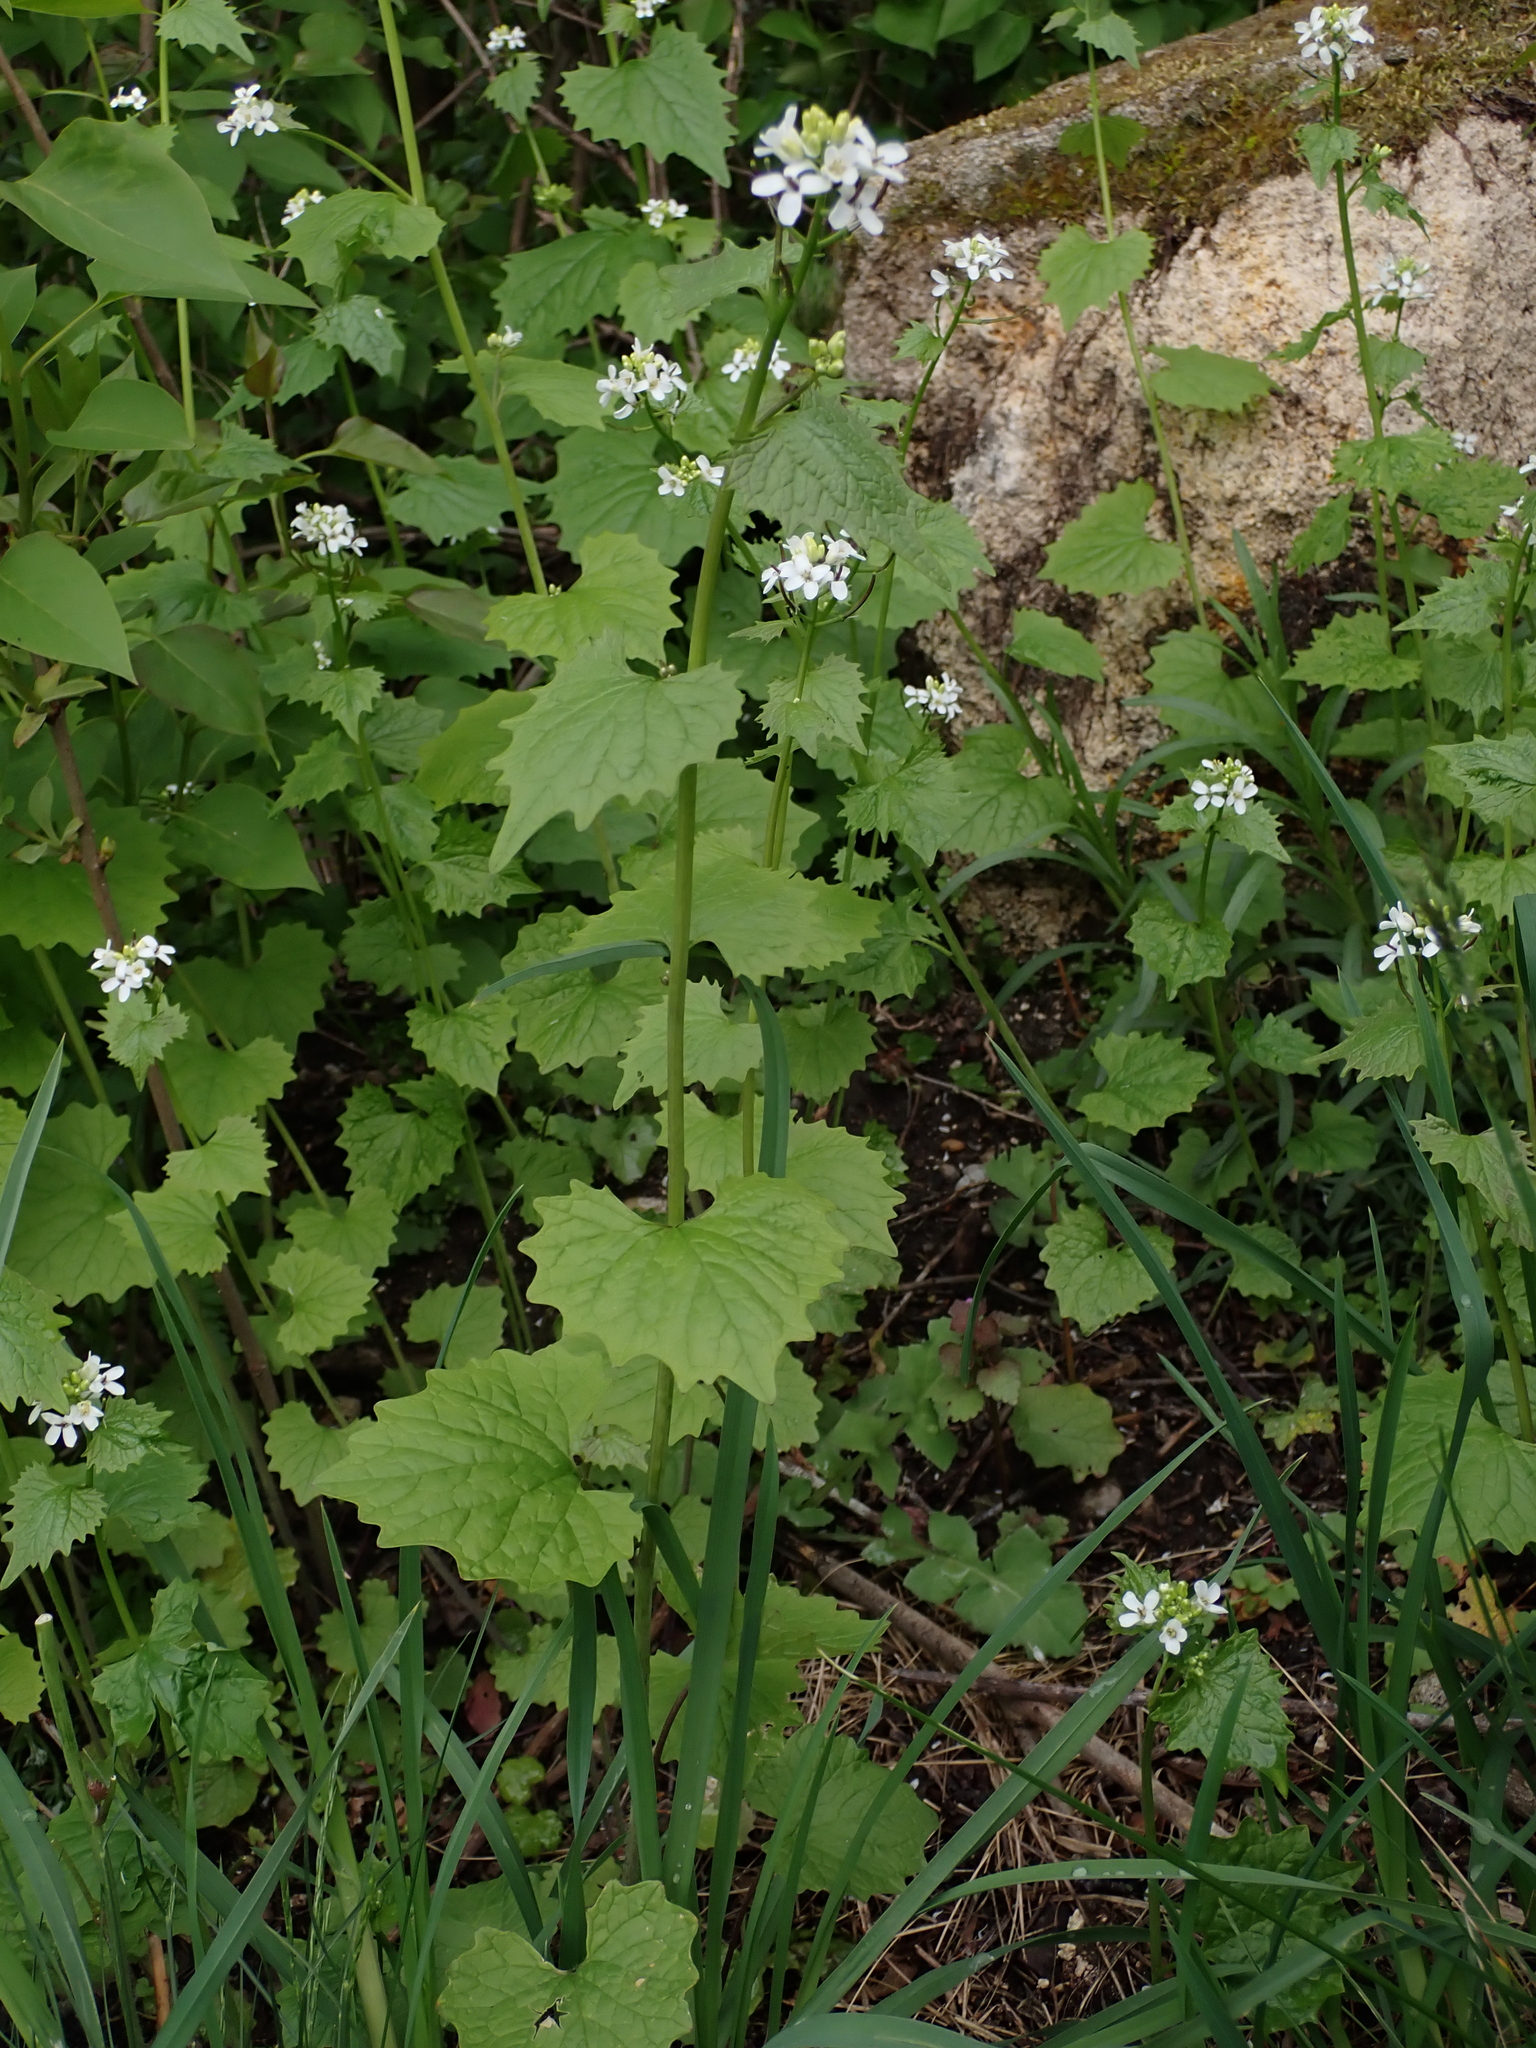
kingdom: Plantae
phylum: Tracheophyta
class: Magnoliopsida
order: Brassicales
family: Brassicaceae
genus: Alliaria
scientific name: Alliaria petiolata
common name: Garlic mustard
